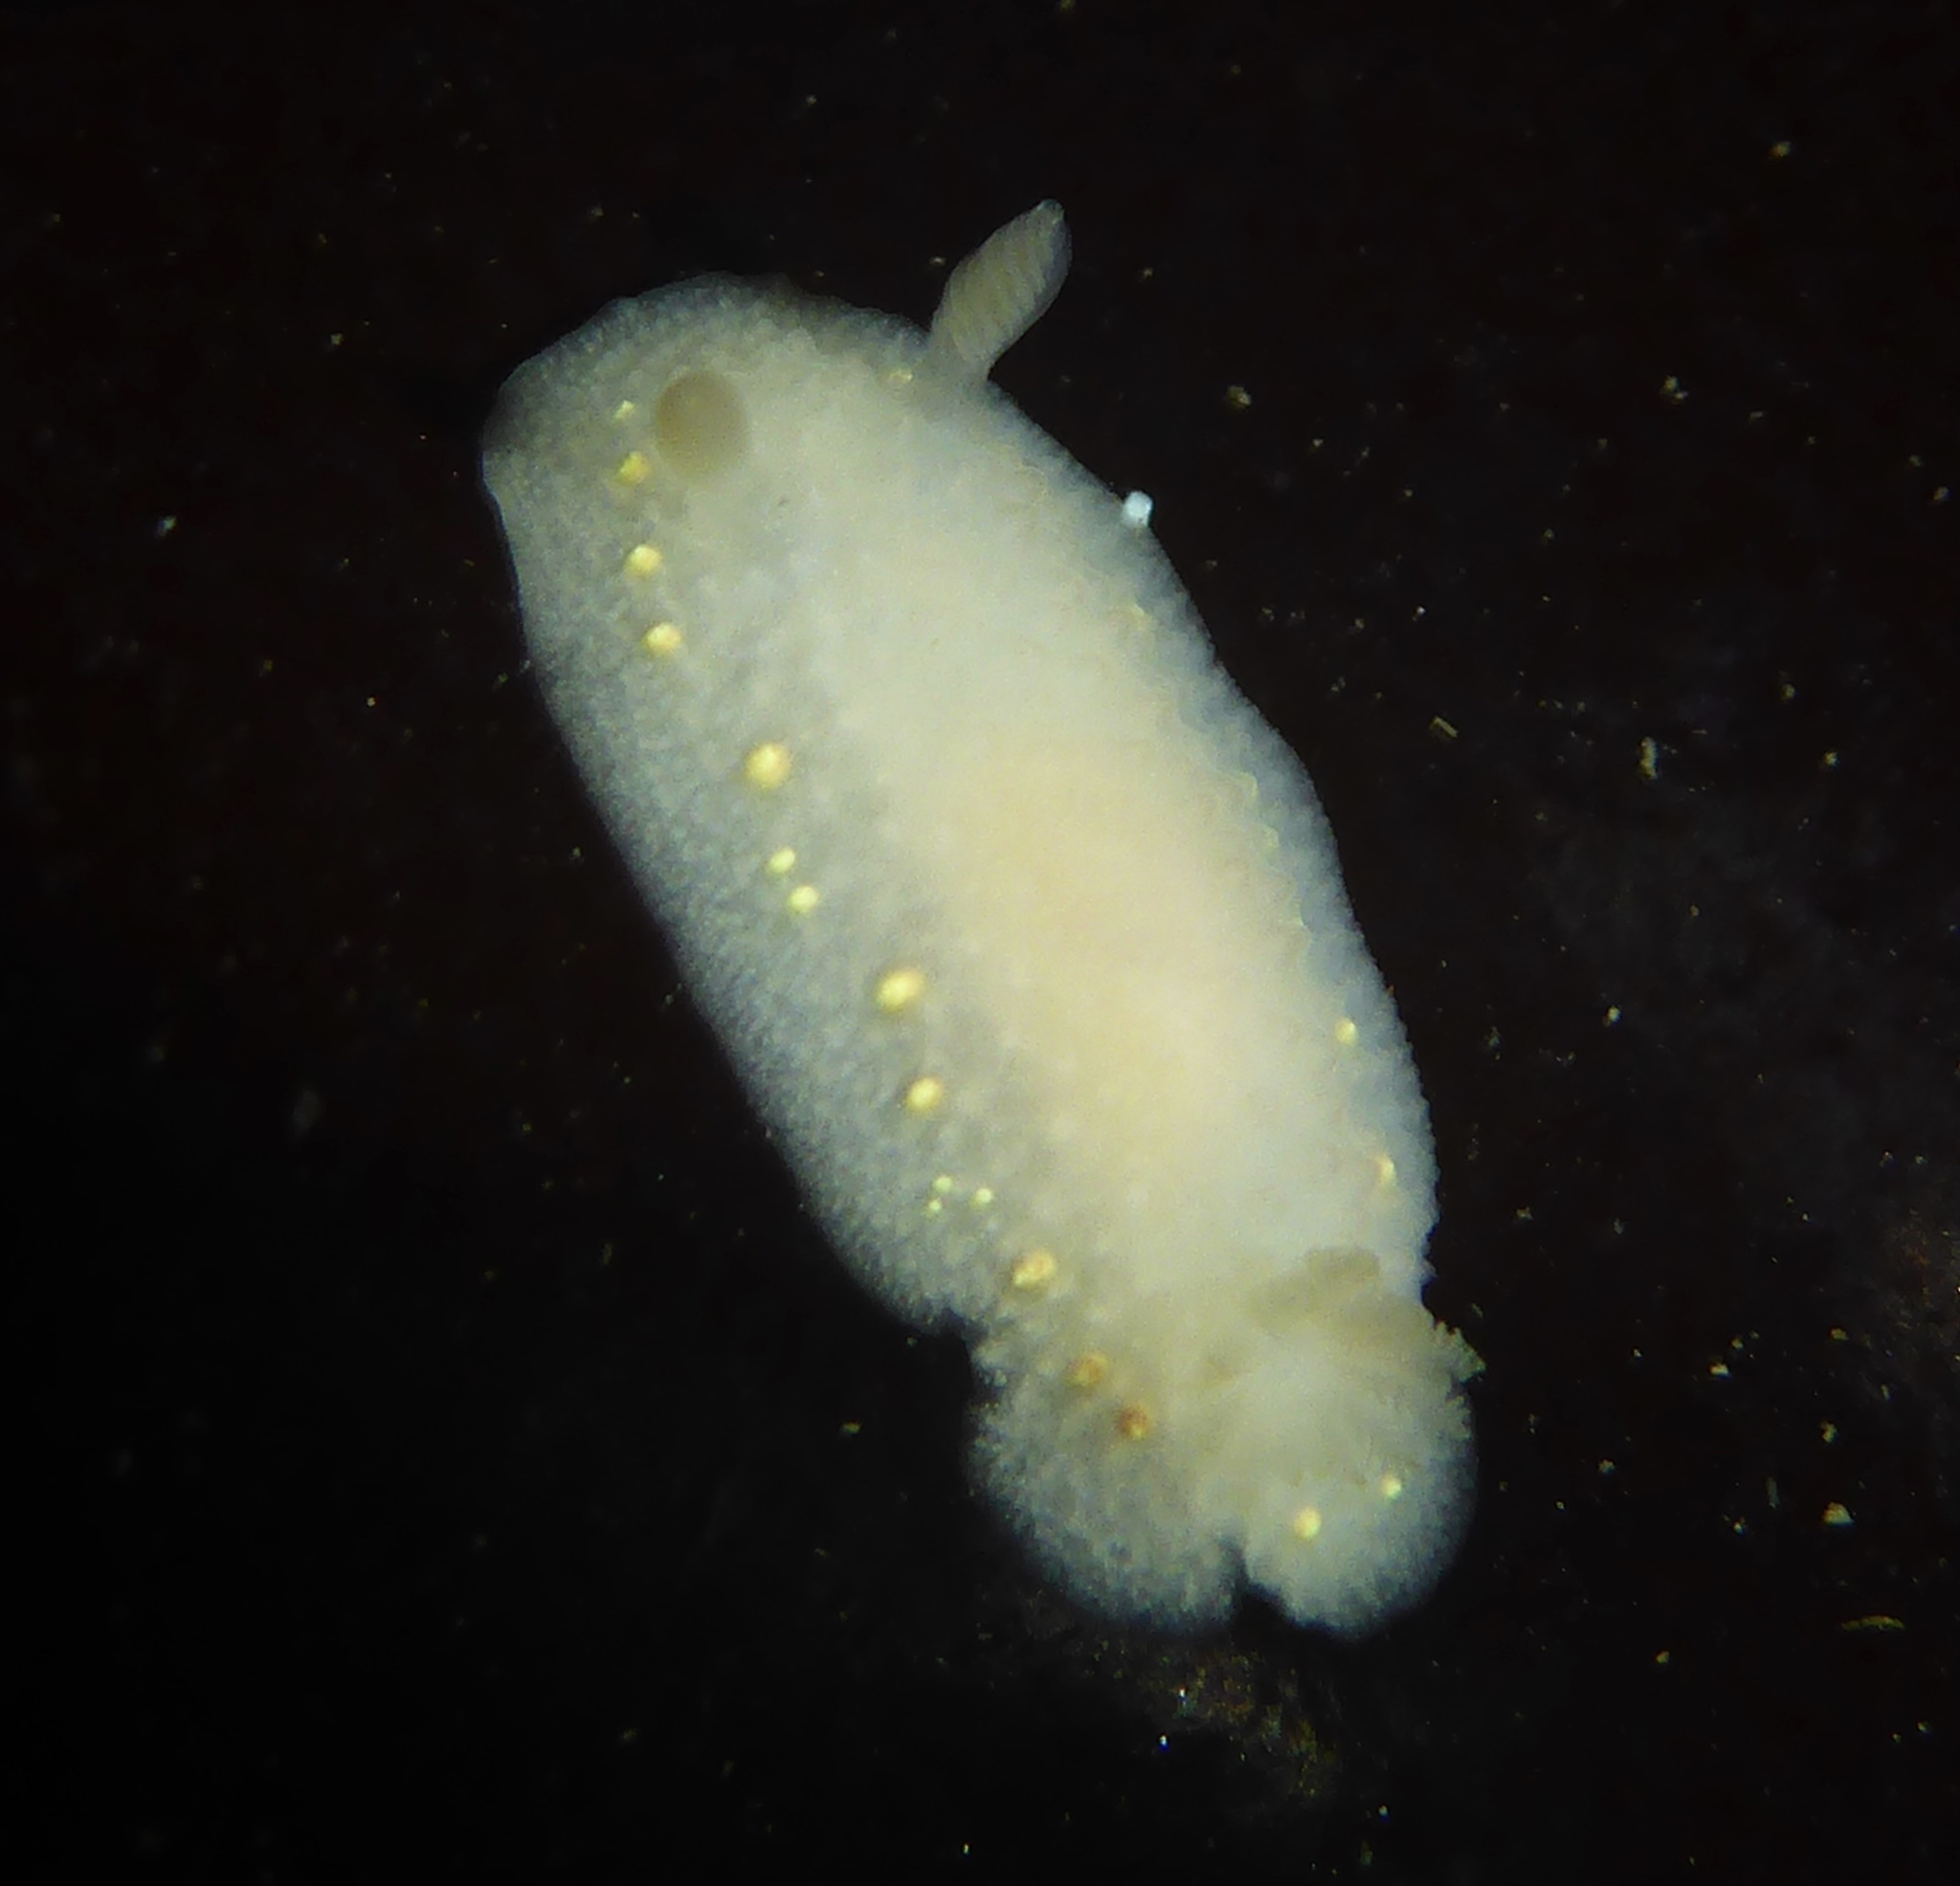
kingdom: Animalia
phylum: Mollusca
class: Gastropoda
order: Nudibranchia
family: Cadlinidae
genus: Cadlina
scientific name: Cadlina modesta
